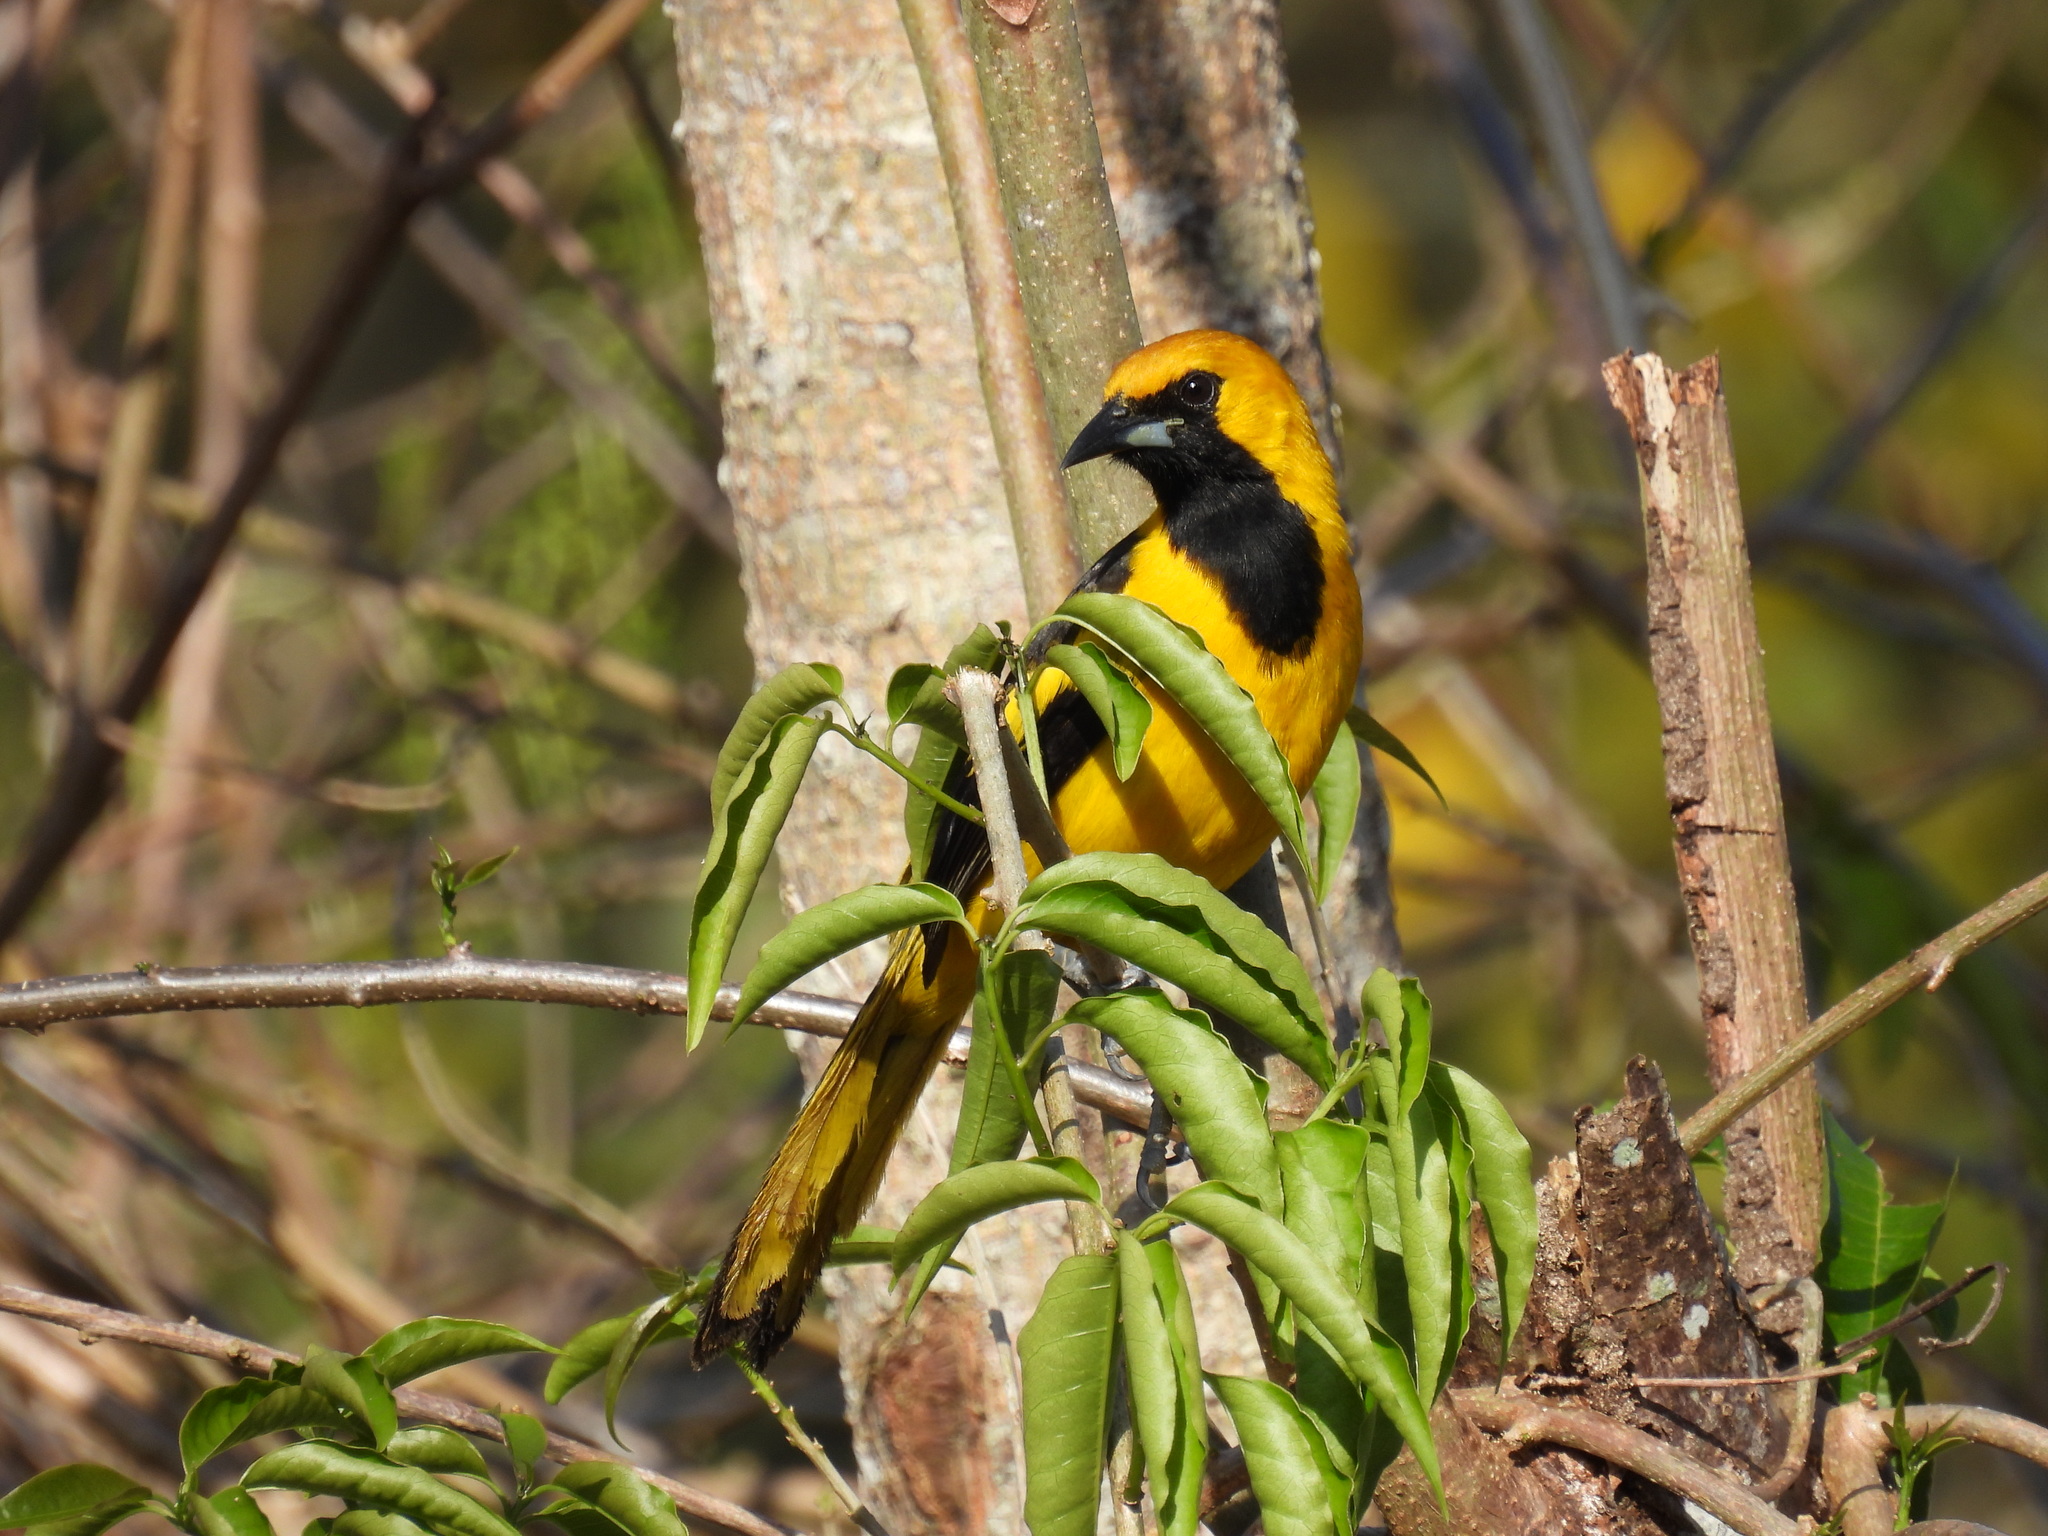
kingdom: Animalia
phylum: Chordata
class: Aves
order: Passeriformes
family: Icteridae
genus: Icterus
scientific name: Icterus chrysater
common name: Yellow-backed oriole
